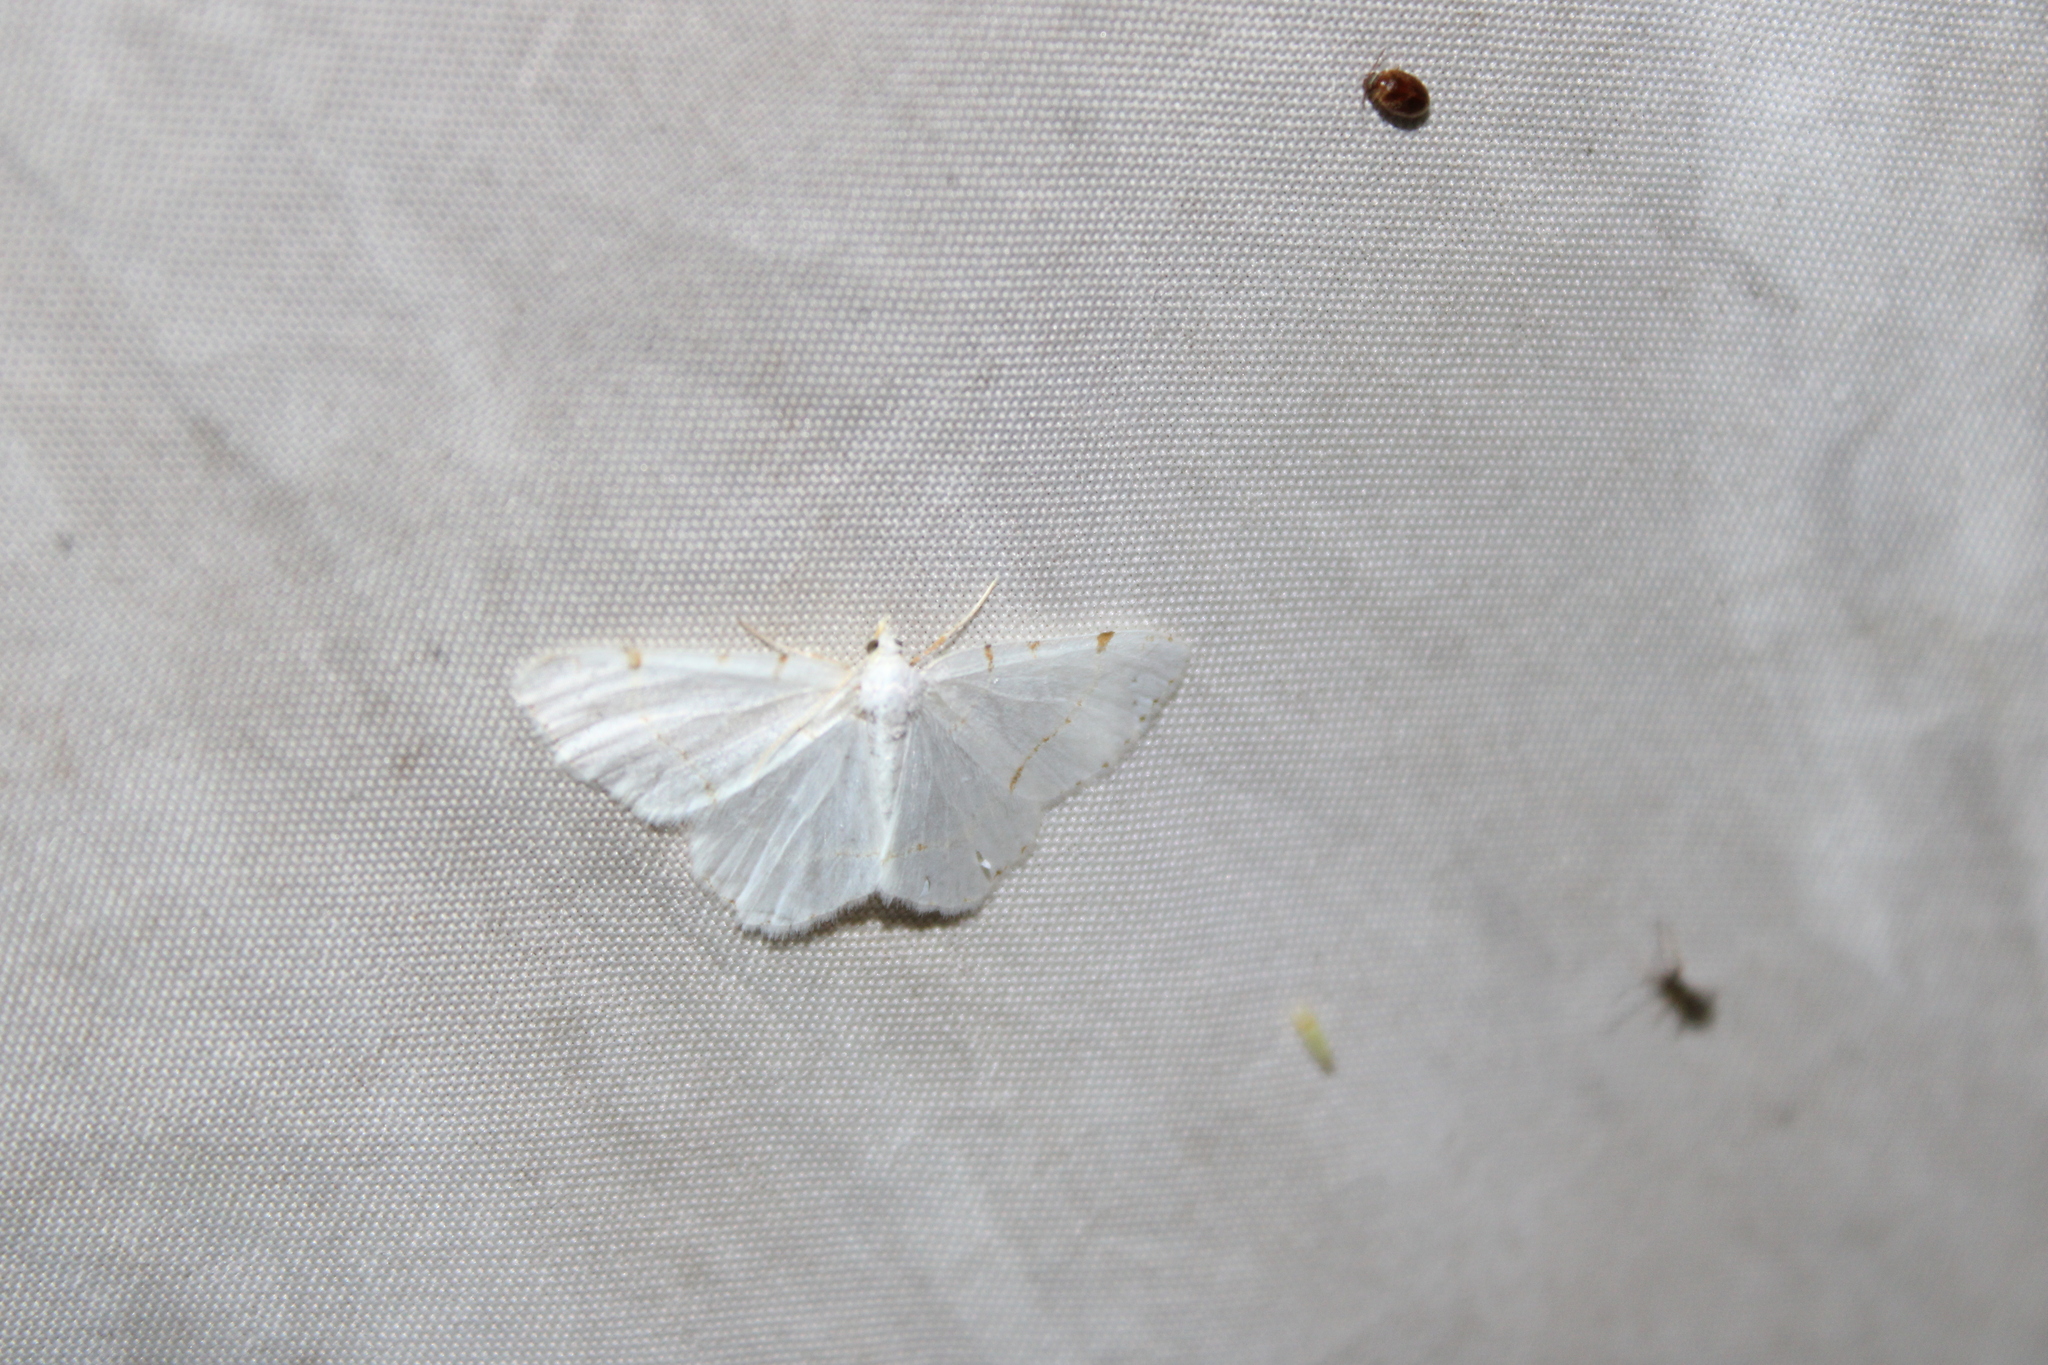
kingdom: Animalia
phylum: Arthropoda
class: Insecta
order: Lepidoptera
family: Geometridae
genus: Macaria
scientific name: Macaria pustularia
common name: Lesser maple spanworm moth
